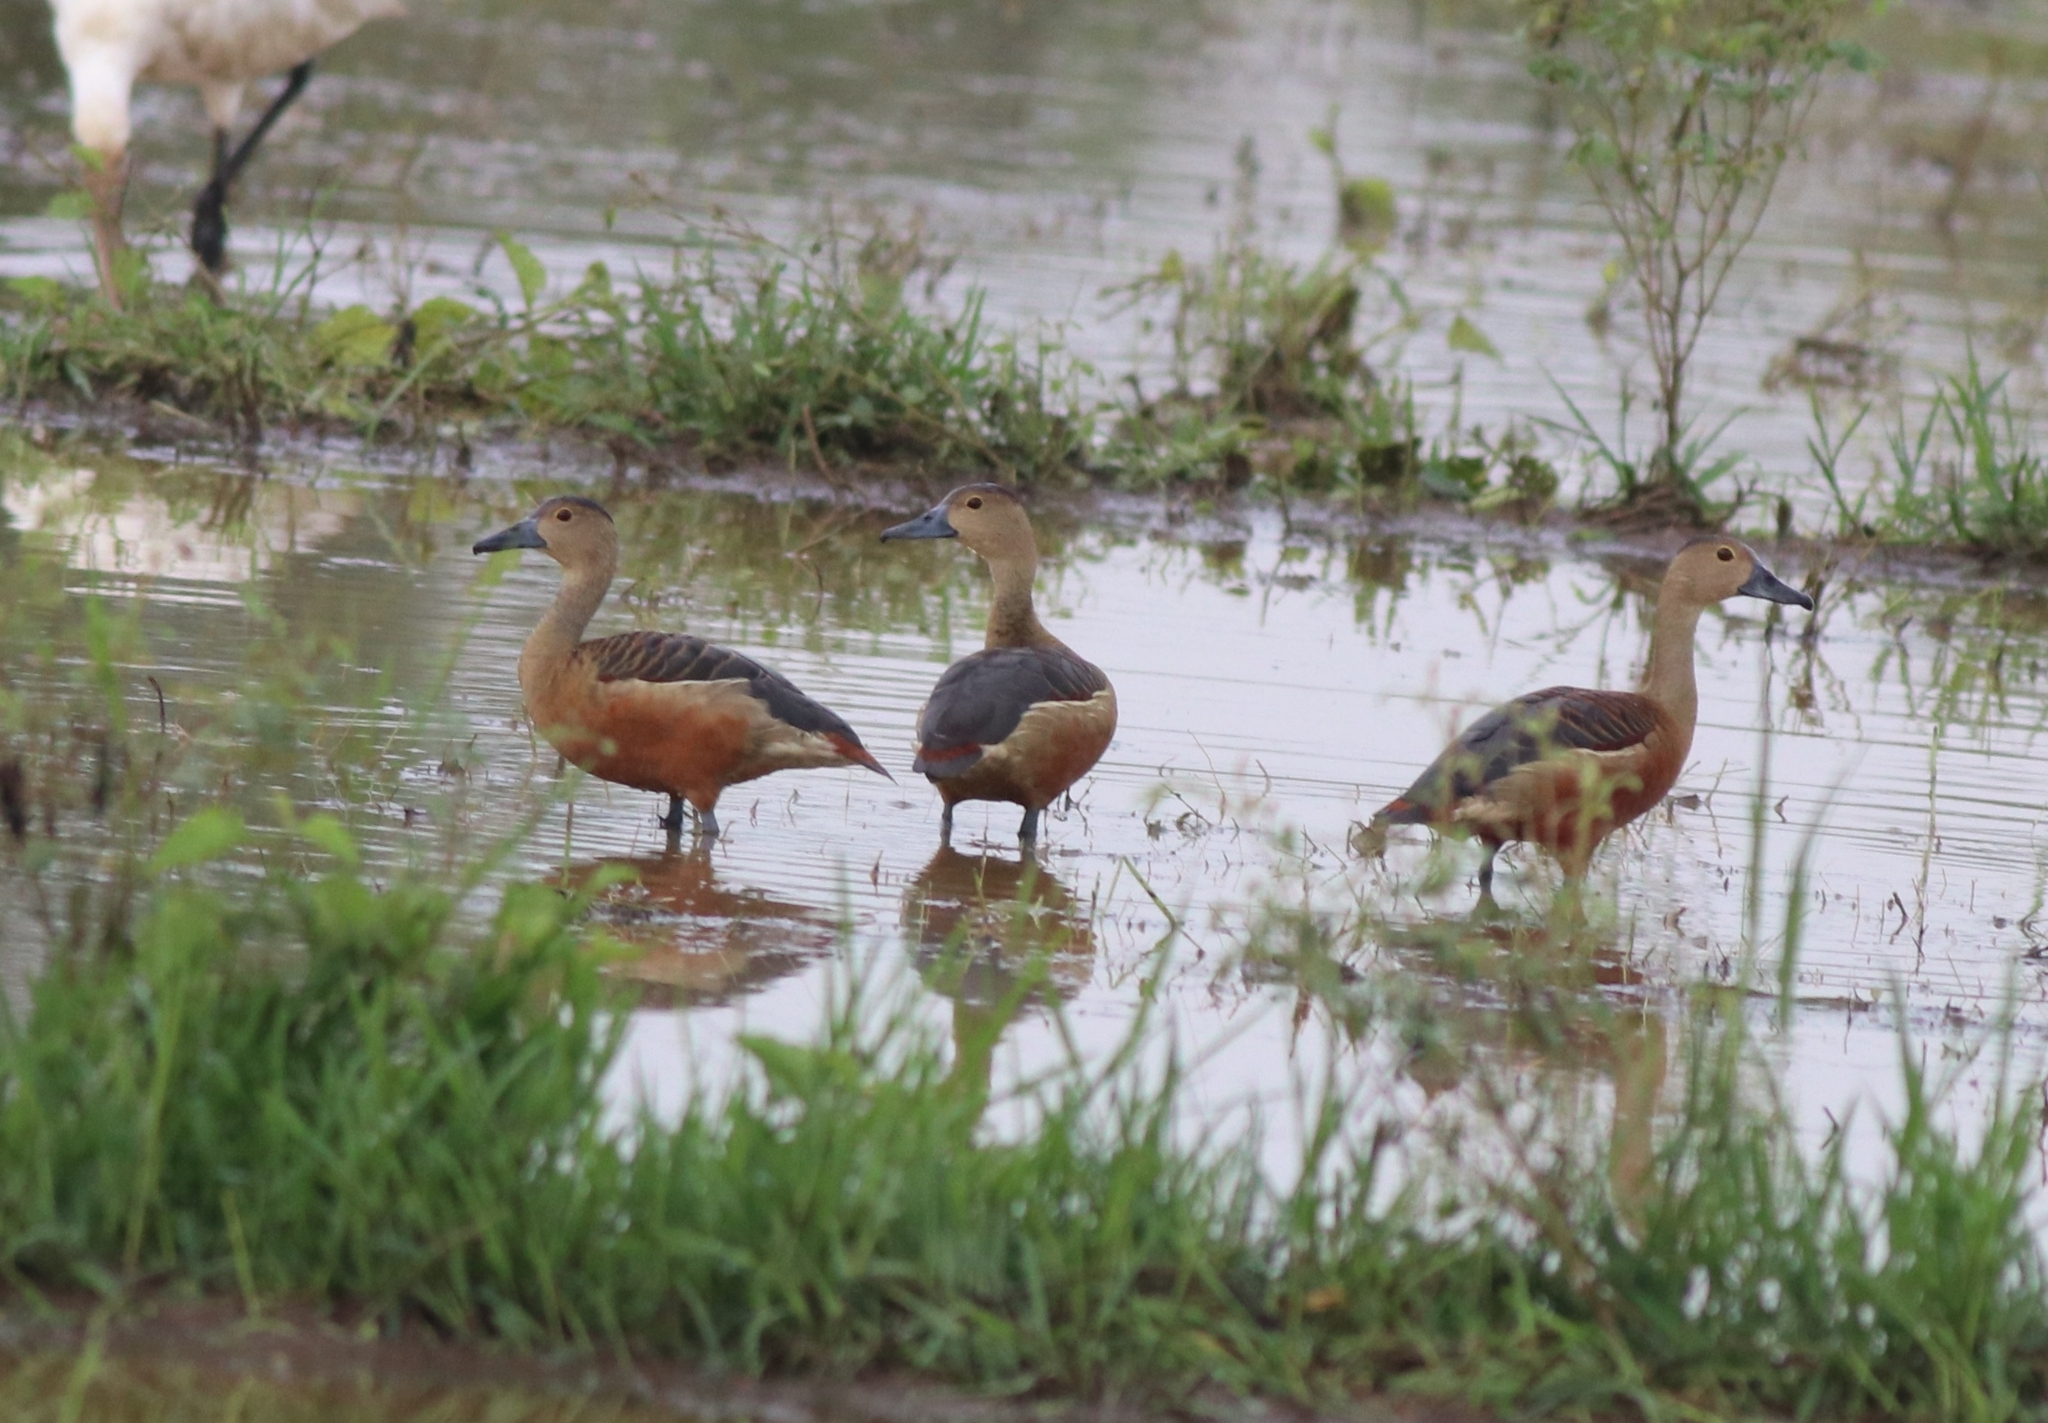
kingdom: Animalia
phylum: Chordata
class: Aves
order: Anseriformes
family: Anatidae
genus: Dendrocygna
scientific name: Dendrocygna javanica
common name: Lesser whistling-duck
